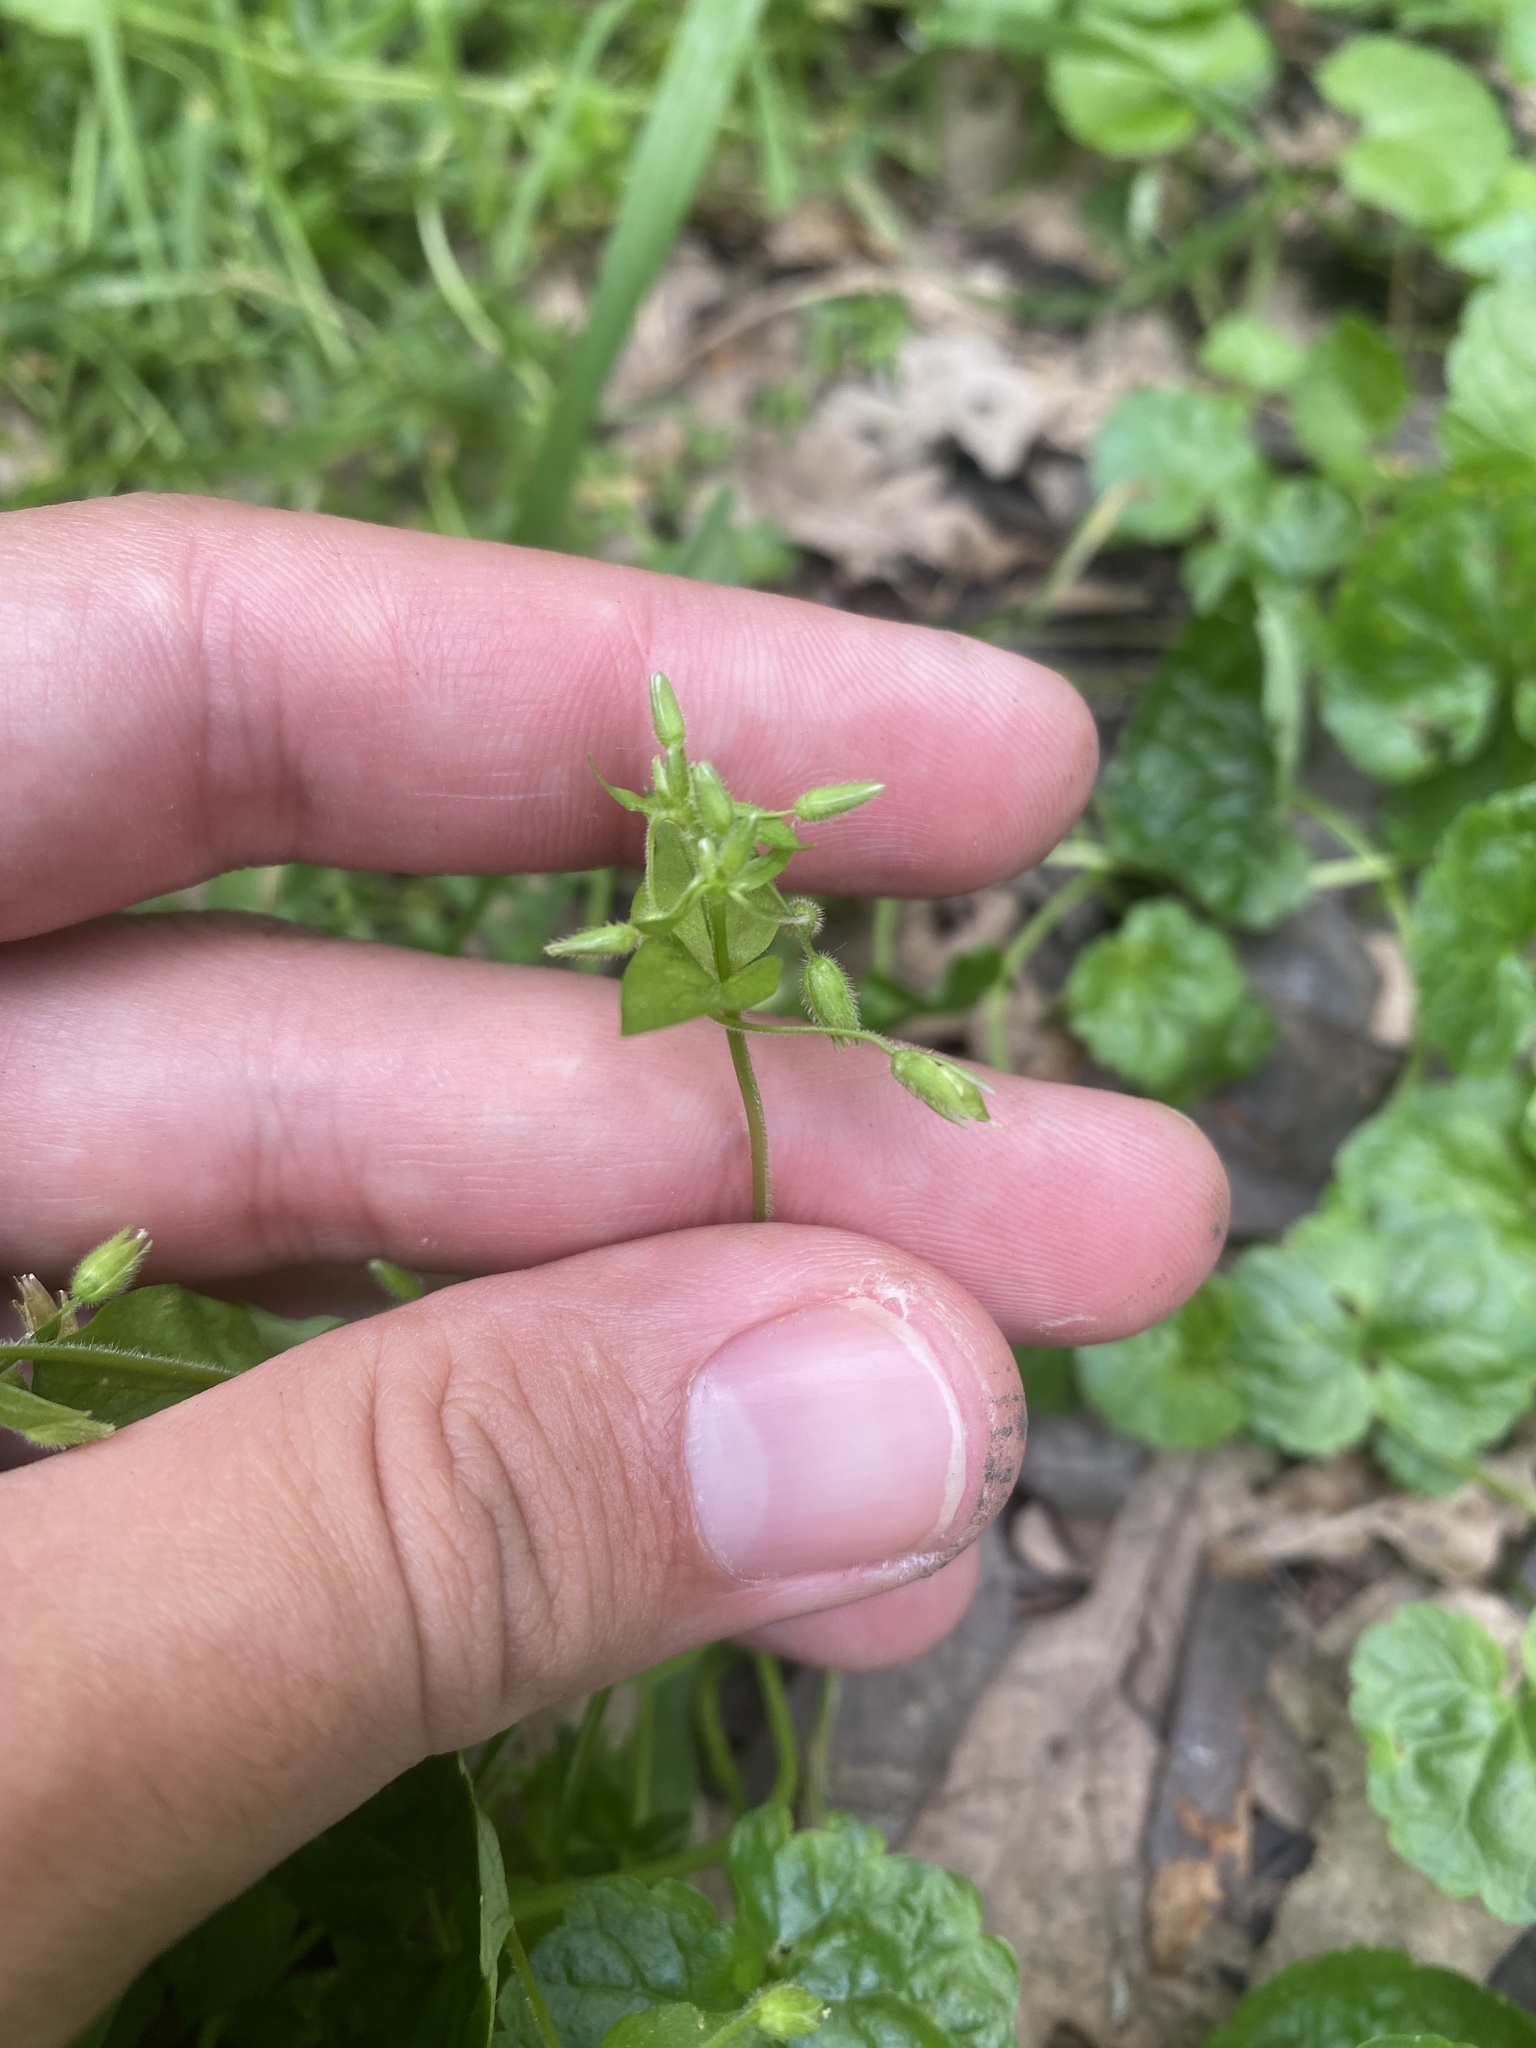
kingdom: Plantae
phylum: Tracheophyta
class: Magnoliopsida
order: Caryophyllales
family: Caryophyllaceae
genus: Stellaria
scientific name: Stellaria media
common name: Common chickweed
